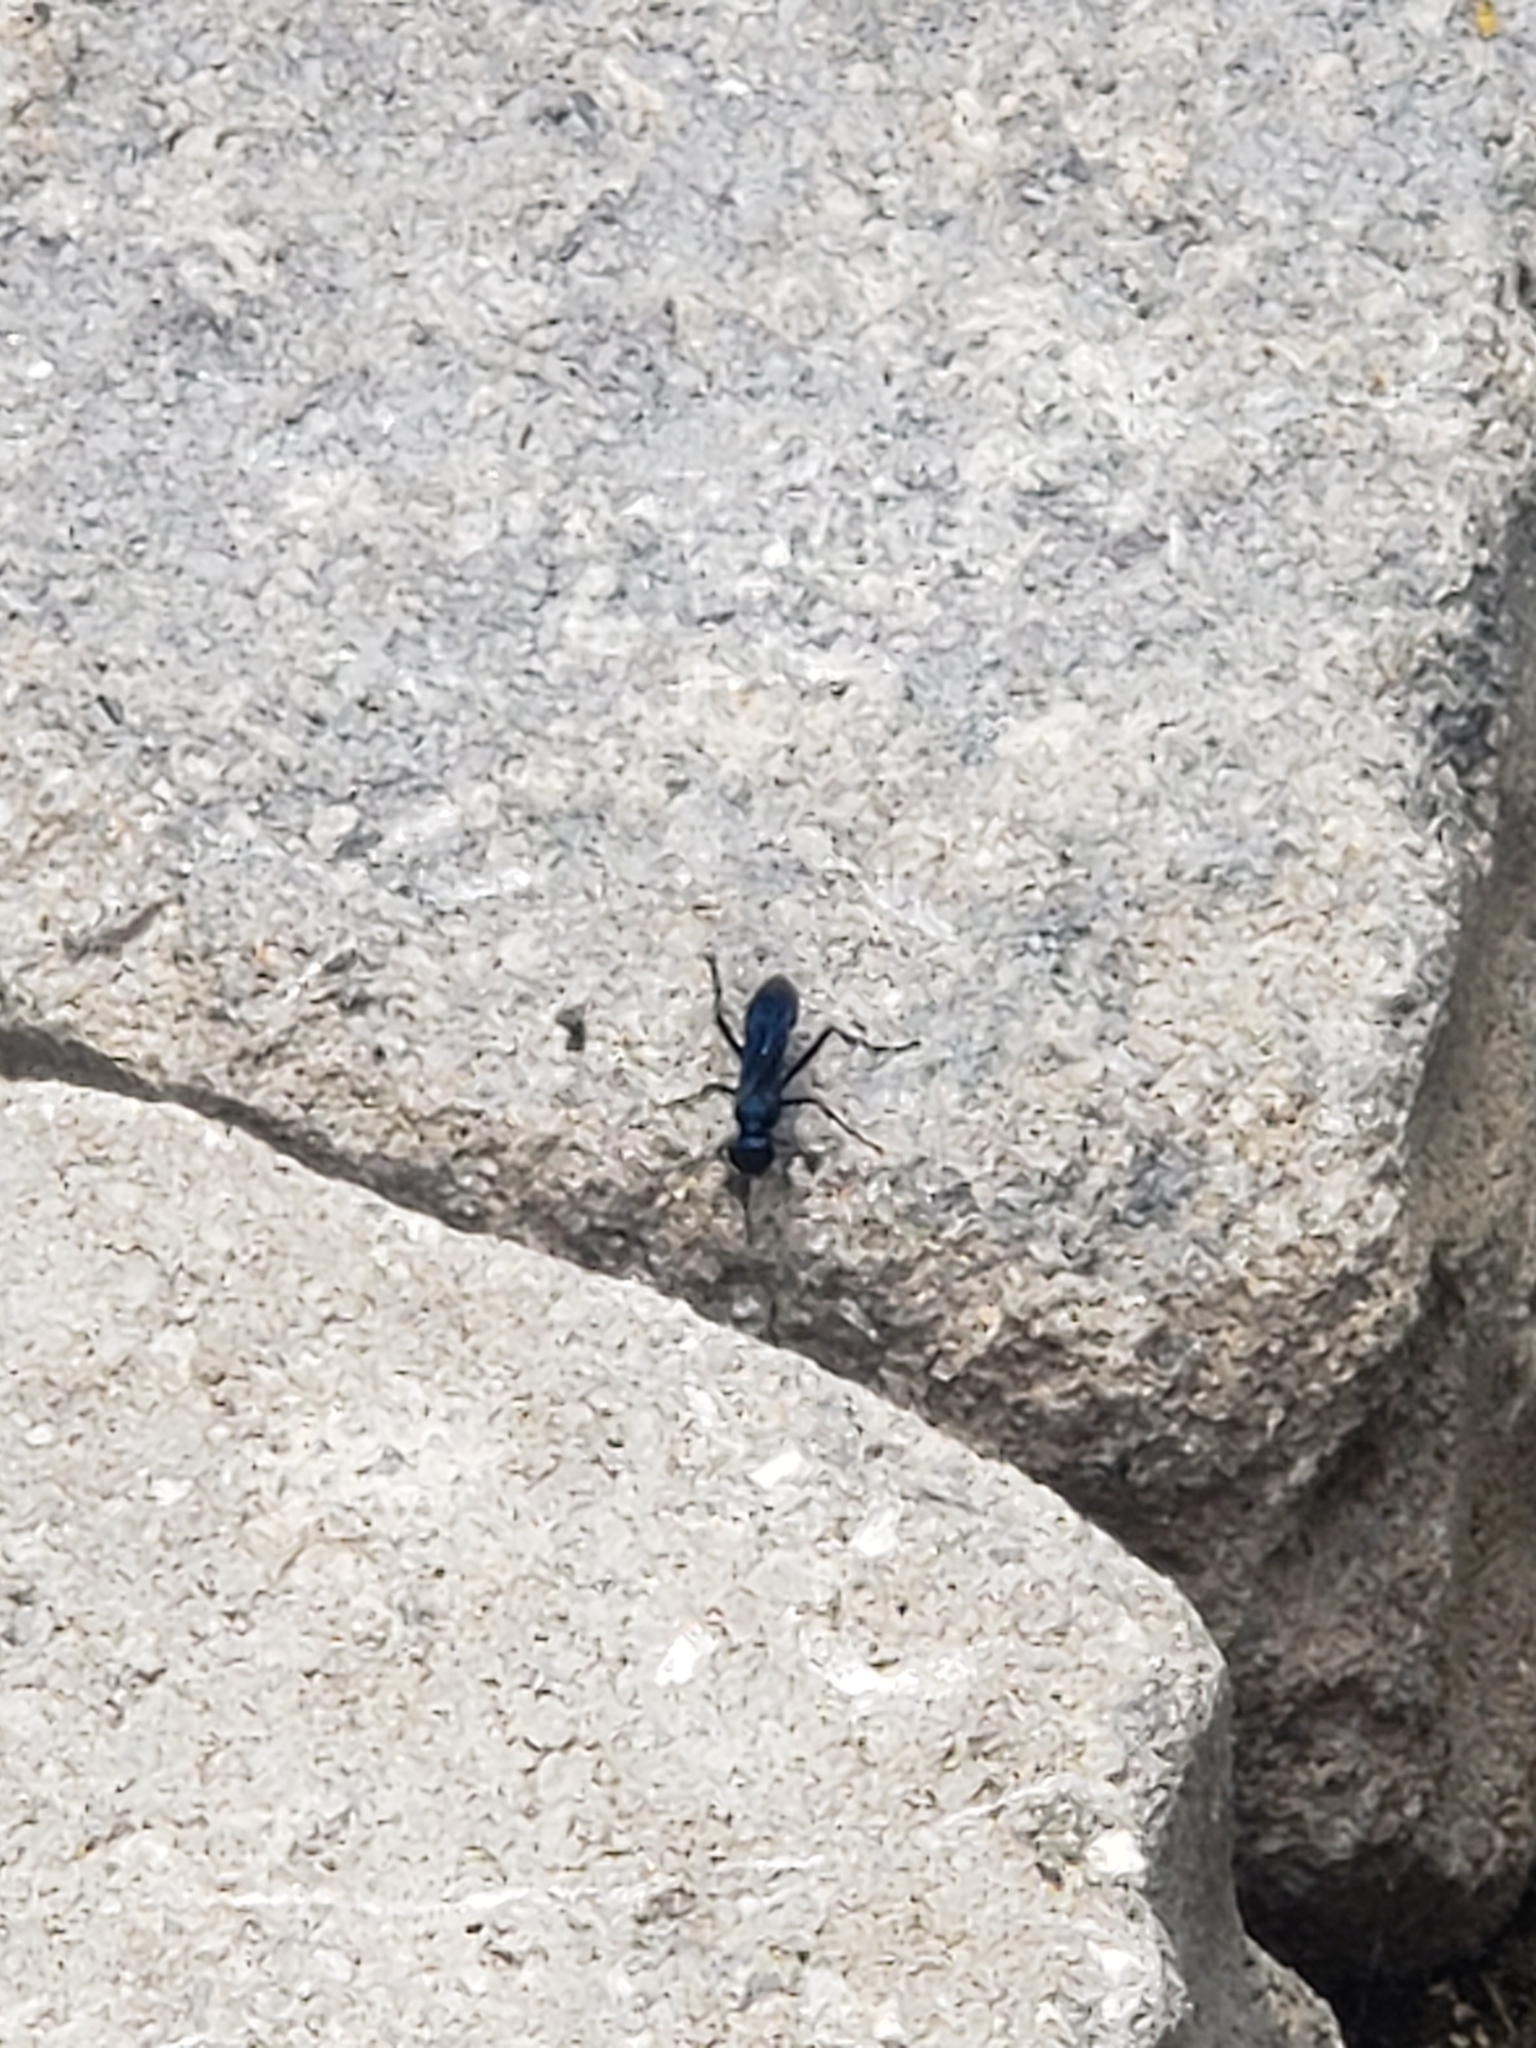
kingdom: Animalia
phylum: Arthropoda
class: Insecta
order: Hymenoptera
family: Sphecidae
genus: Chalybion
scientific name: Chalybion californicum
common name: Mud dauber
